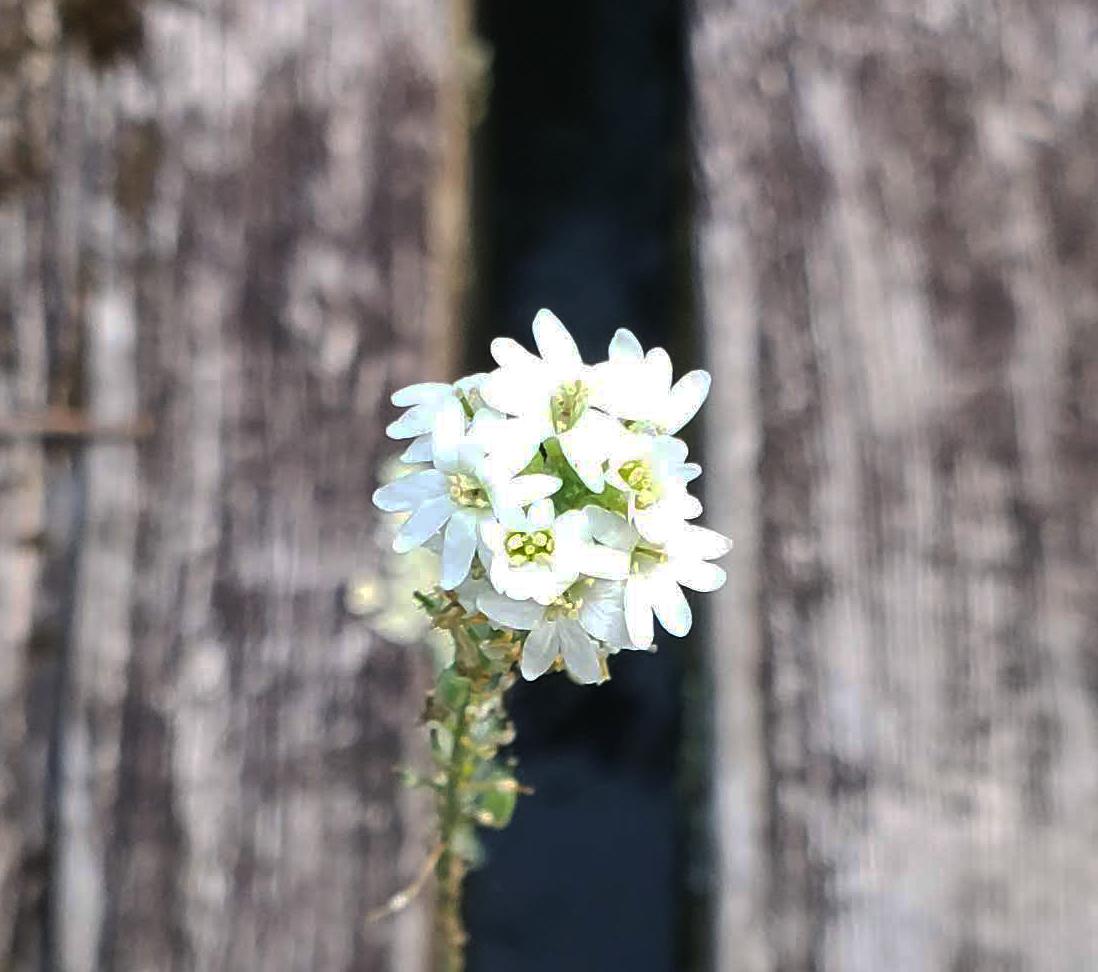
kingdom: Plantae
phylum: Tracheophyta
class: Magnoliopsida
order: Brassicales
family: Brassicaceae
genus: Berteroa
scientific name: Berteroa incana
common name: Hoary alison
